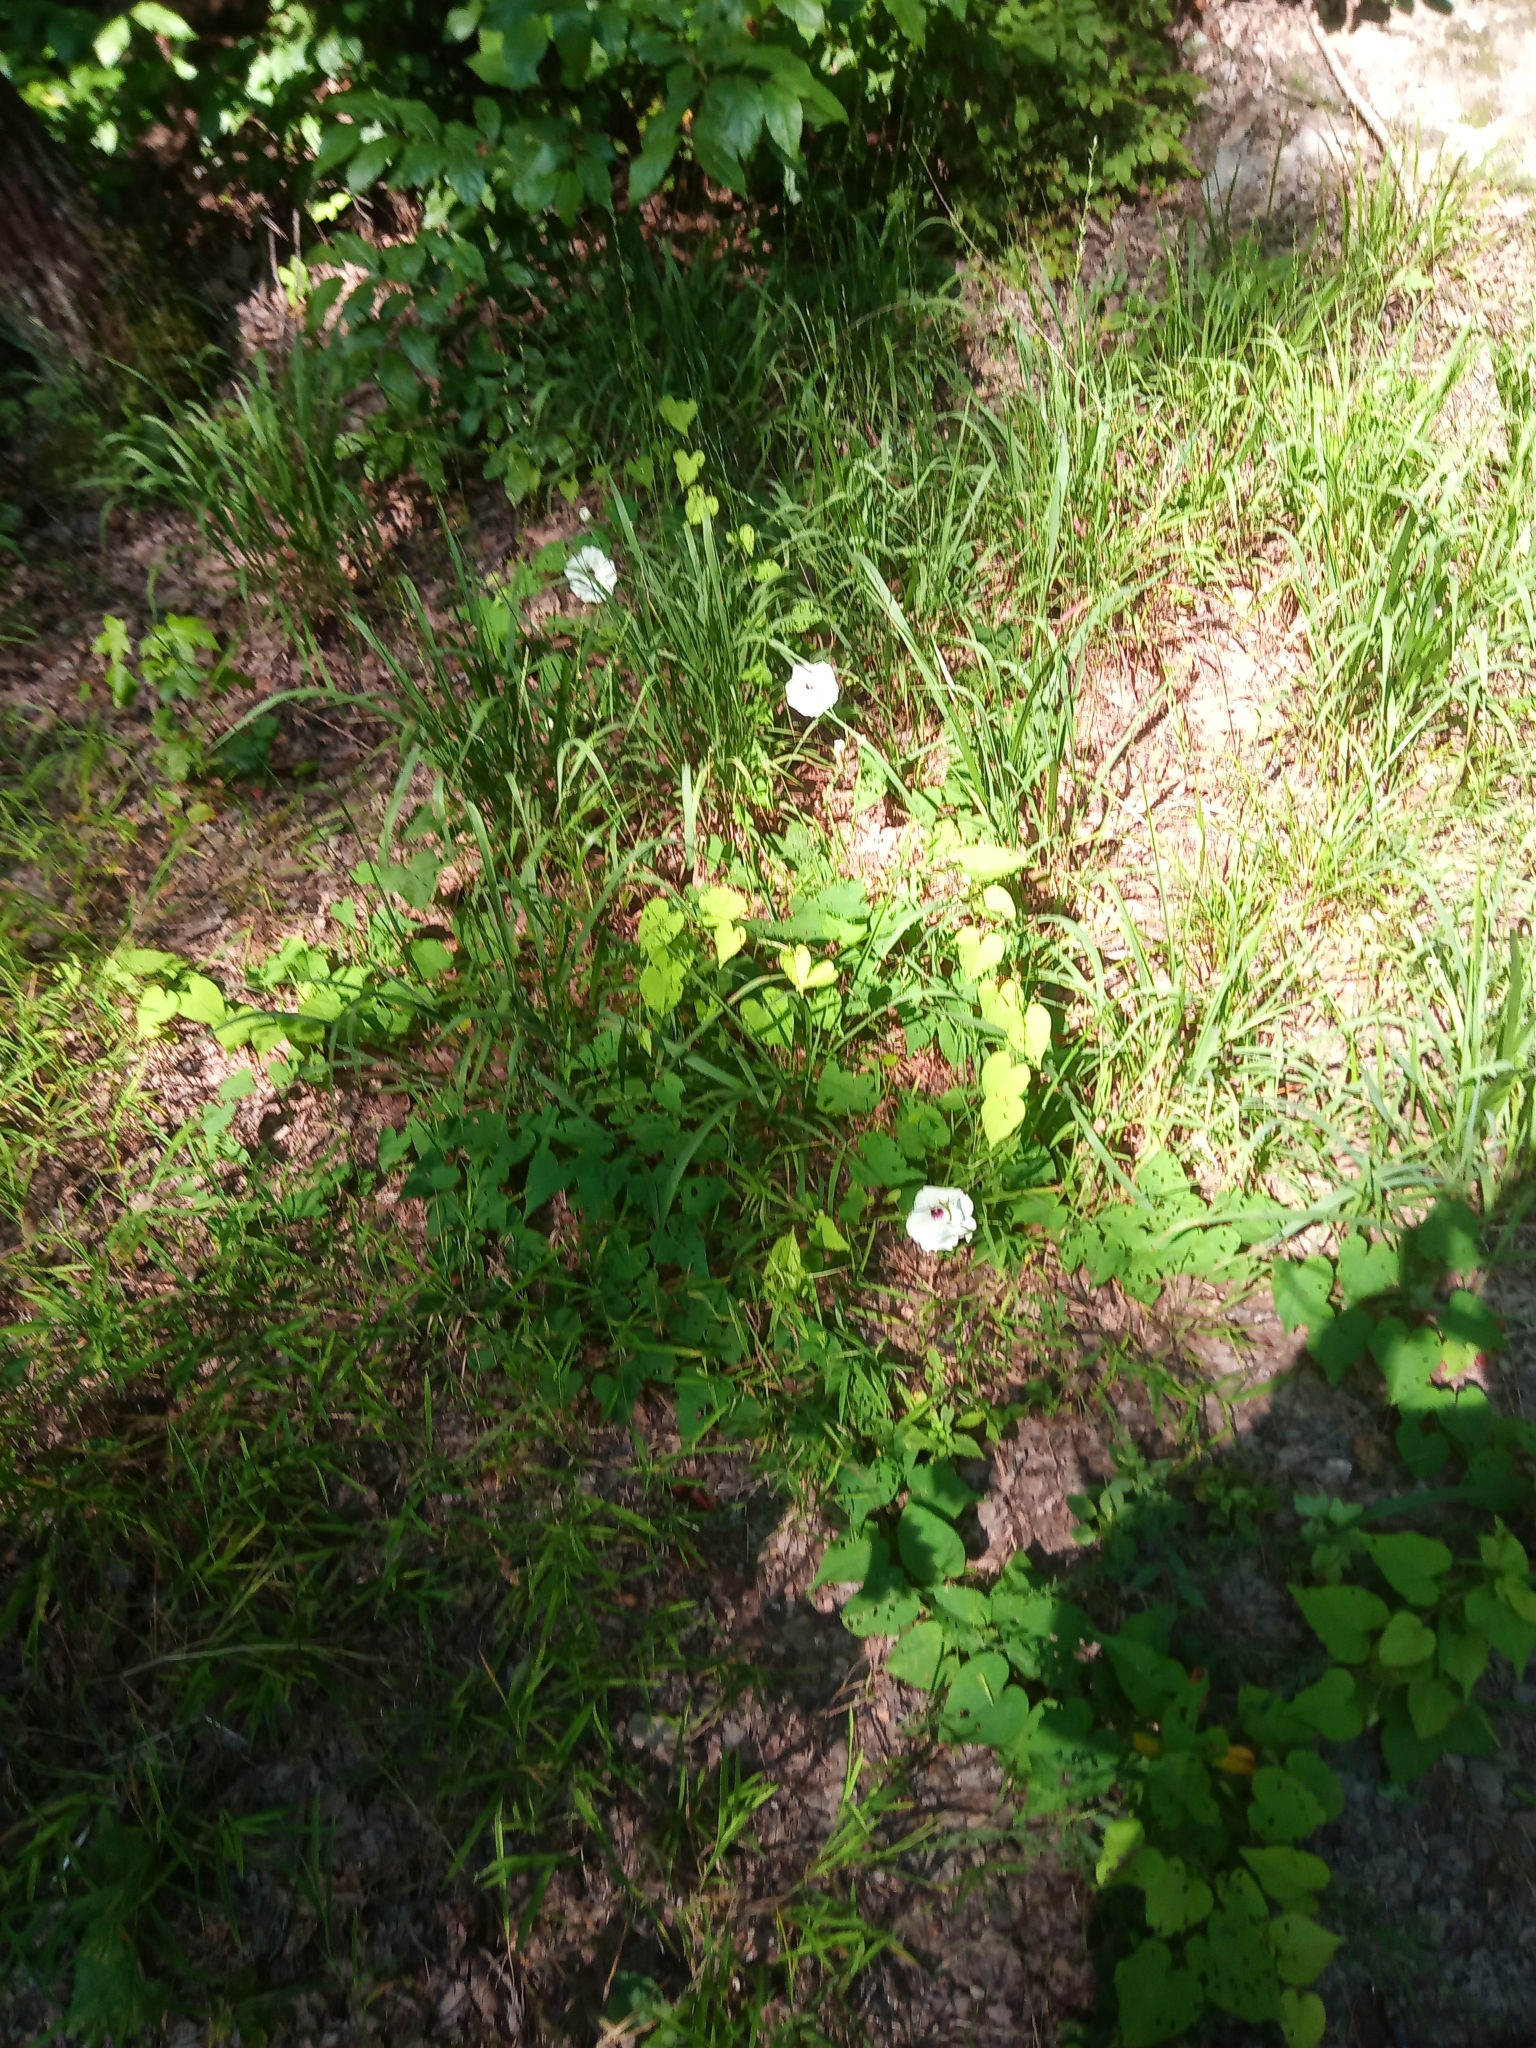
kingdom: Plantae
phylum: Tracheophyta
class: Magnoliopsida
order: Solanales
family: Convolvulaceae
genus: Ipomoea
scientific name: Ipomoea pandurata
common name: Man-of-the-earth
